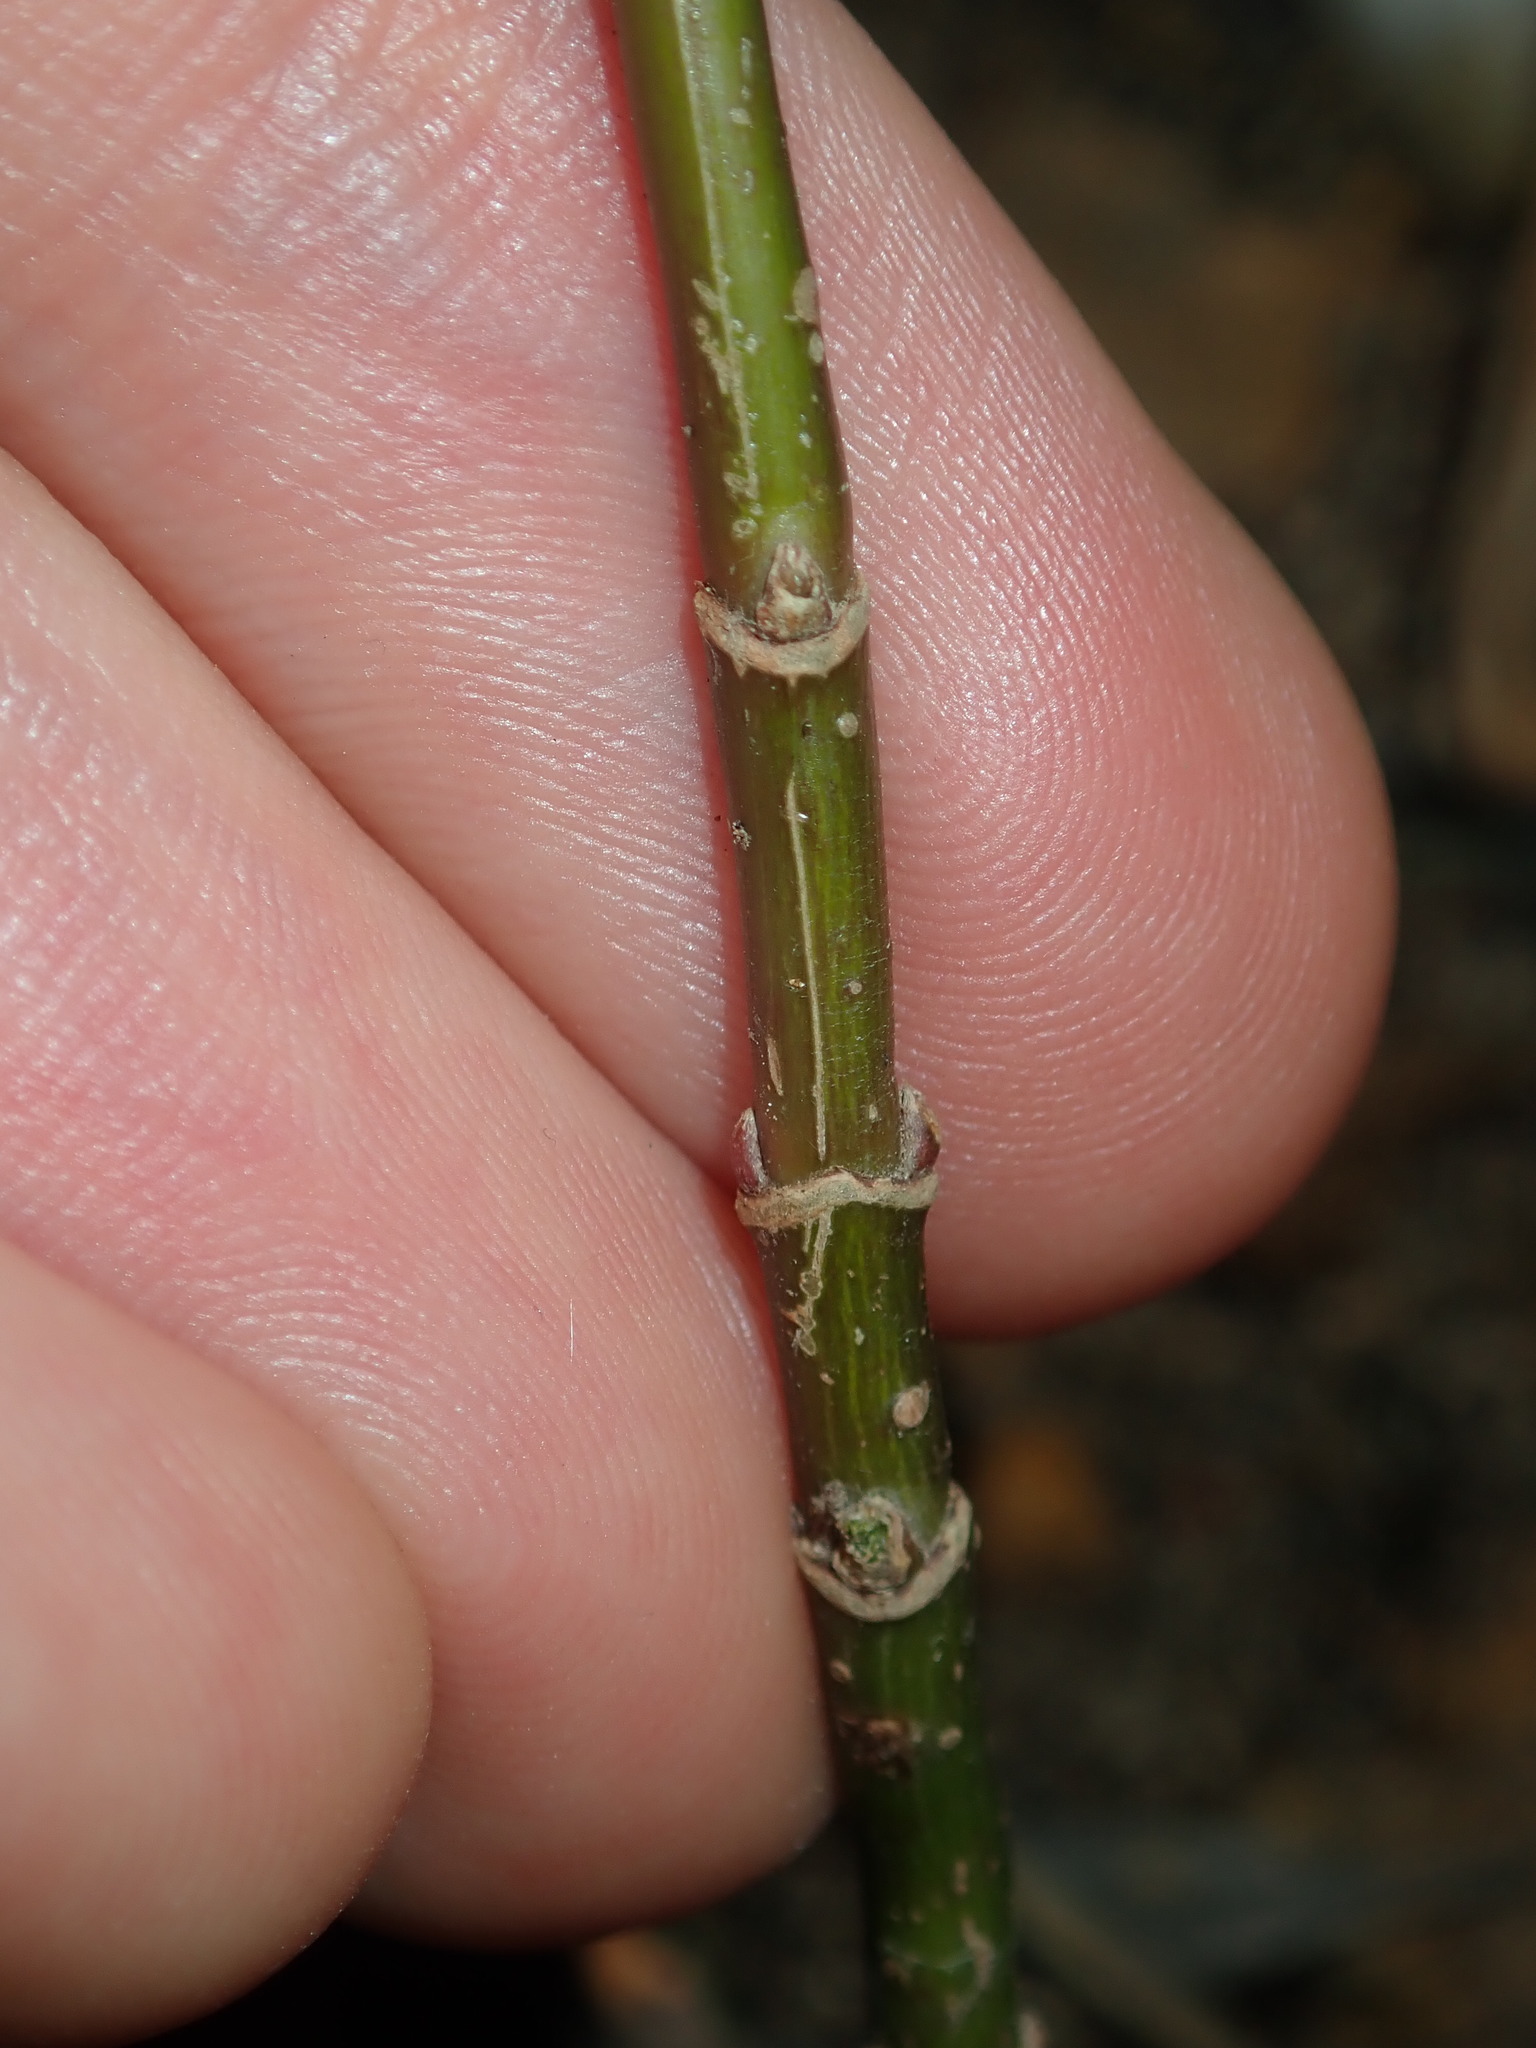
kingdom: Plantae
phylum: Tracheophyta
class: Magnoliopsida
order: Sapindales
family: Sapindaceae
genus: Acer
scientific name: Acer negundo
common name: Ashleaf maple
